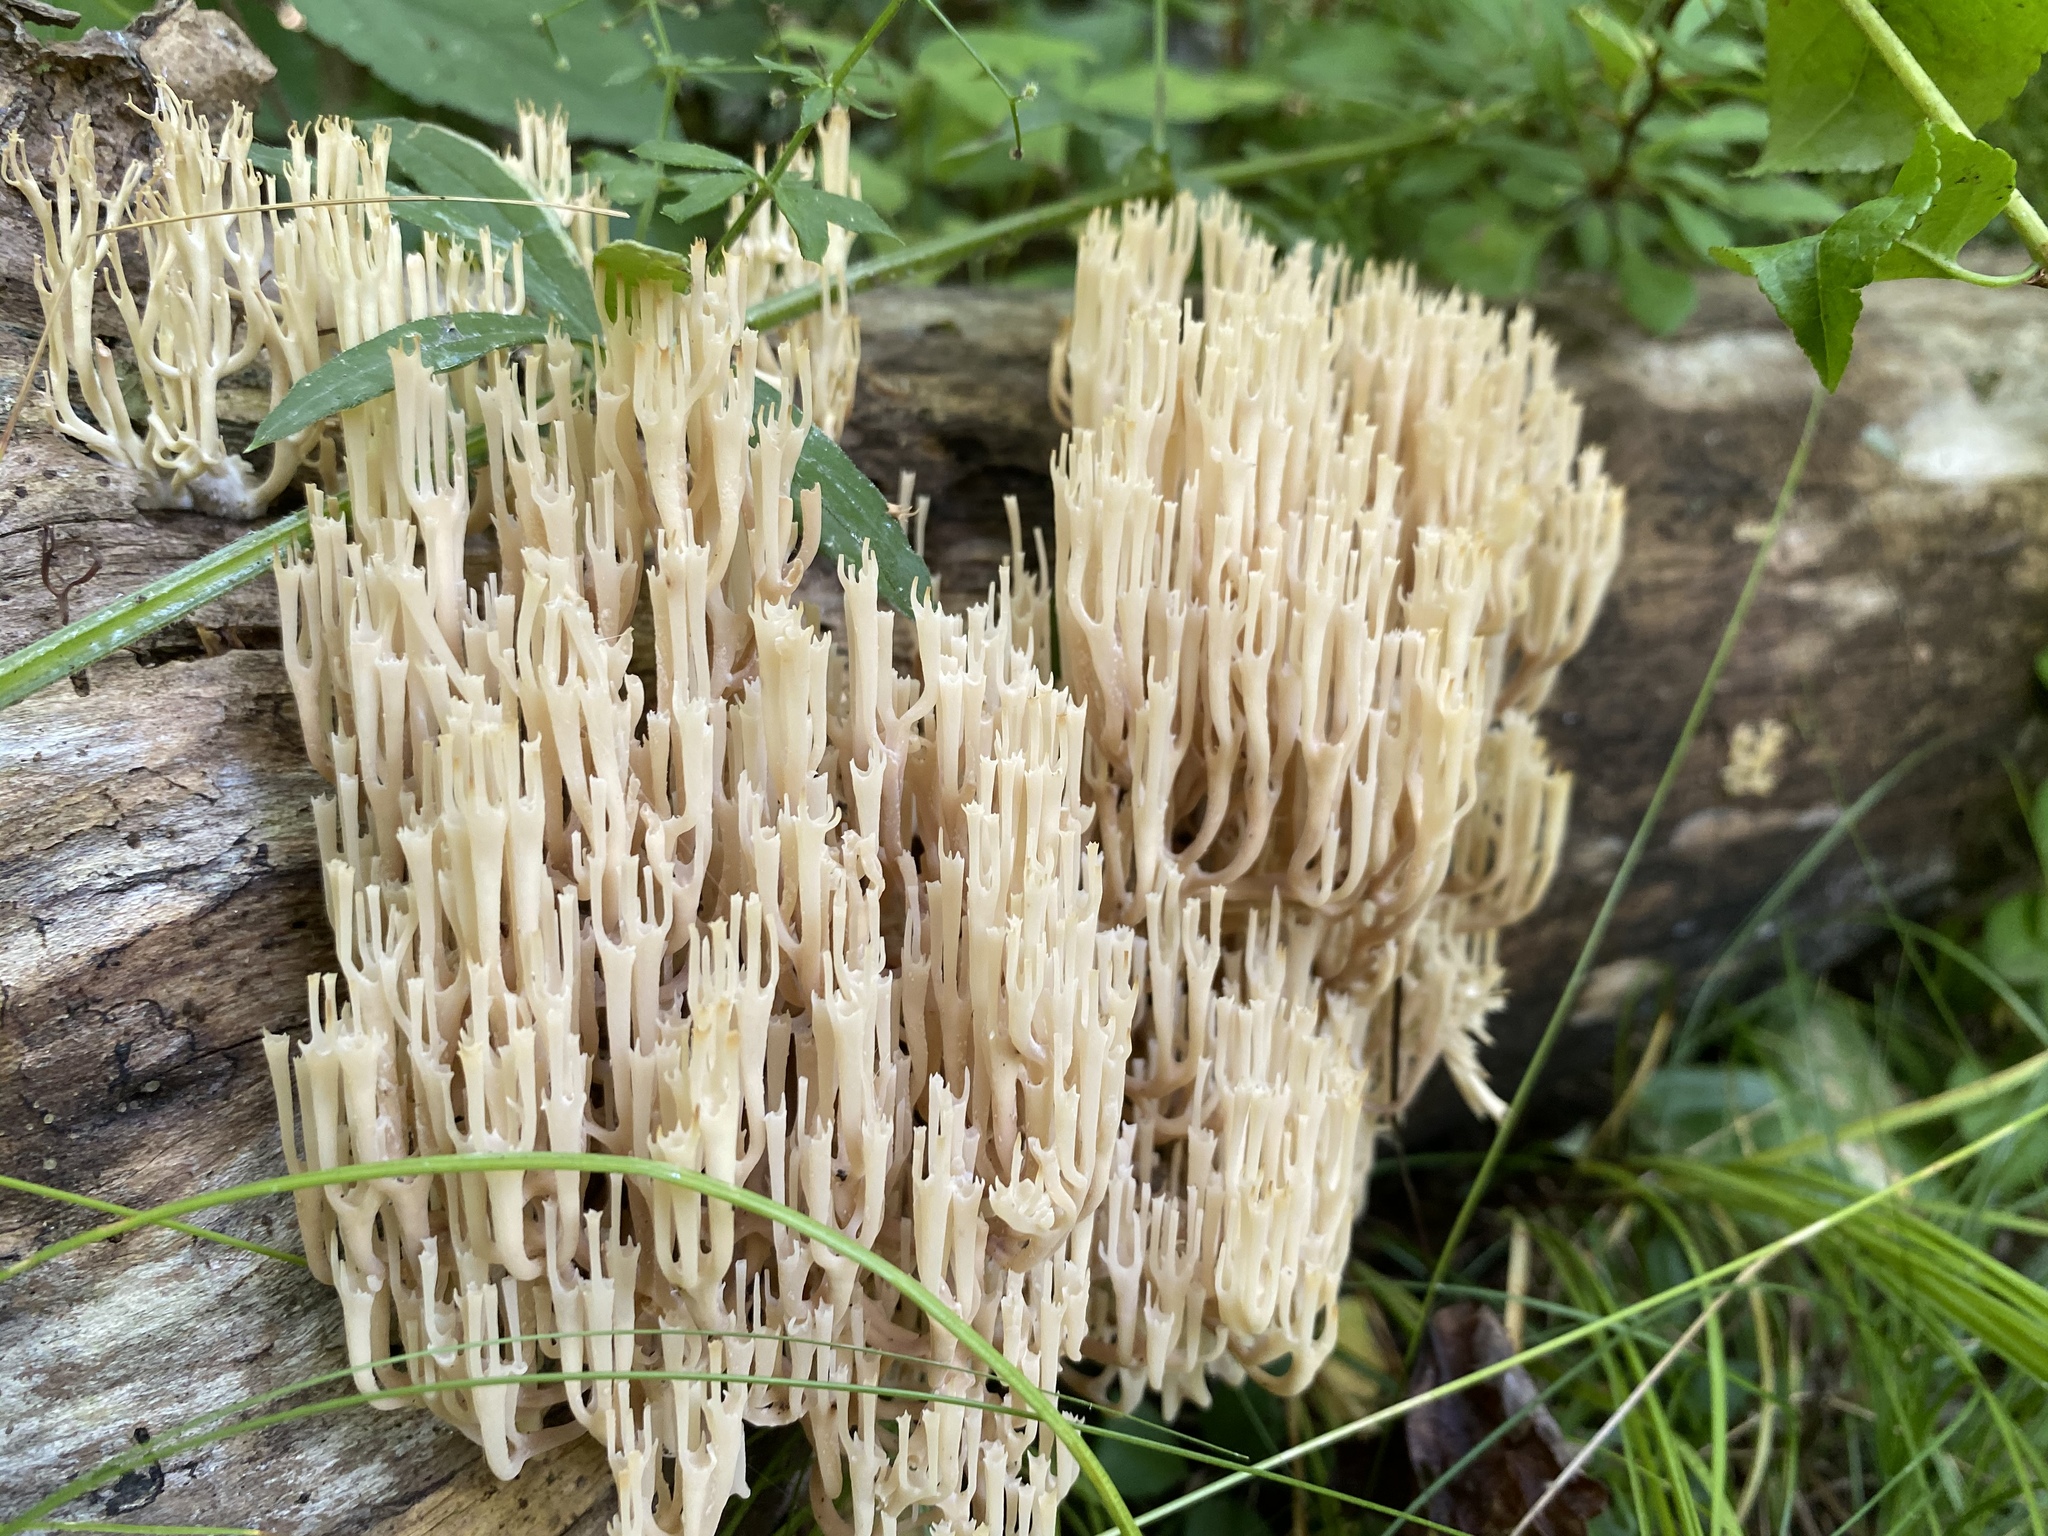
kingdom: Fungi
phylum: Basidiomycota
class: Agaricomycetes
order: Russulales
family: Auriscalpiaceae
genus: Artomyces
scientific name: Artomyces pyxidatus
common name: Crown-tipped coral fungus
